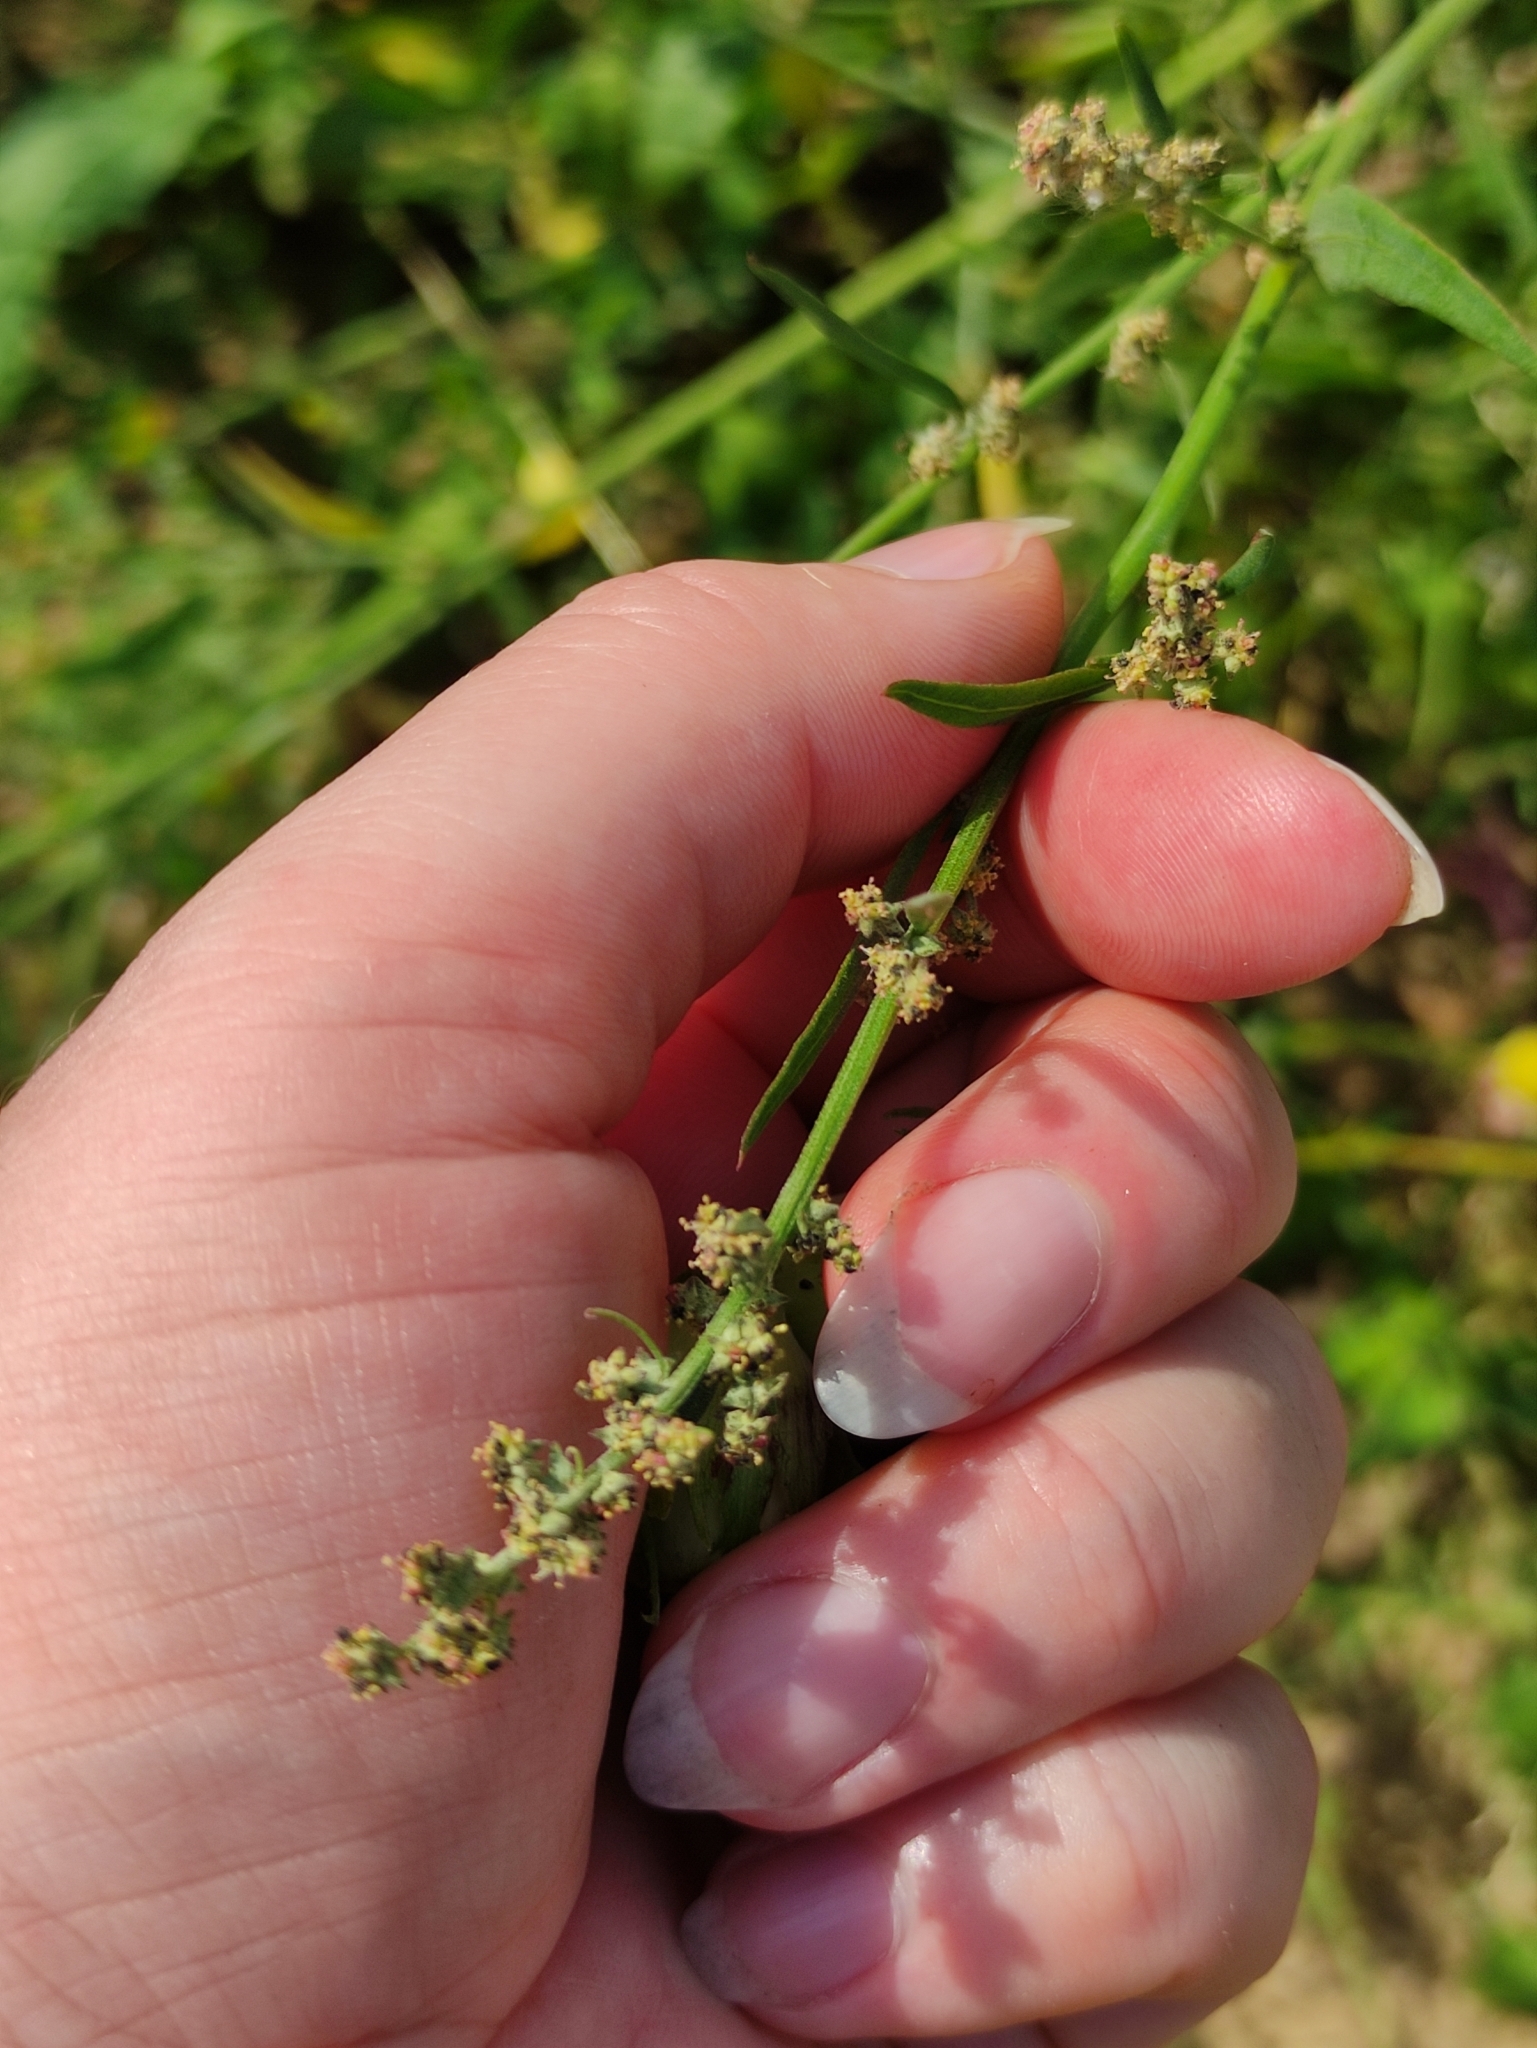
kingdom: Plantae
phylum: Tracheophyta
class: Magnoliopsida
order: Caryophyllales
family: Amaranthaceae
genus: Atriplex
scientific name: Atriplex patula
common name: Common orache
